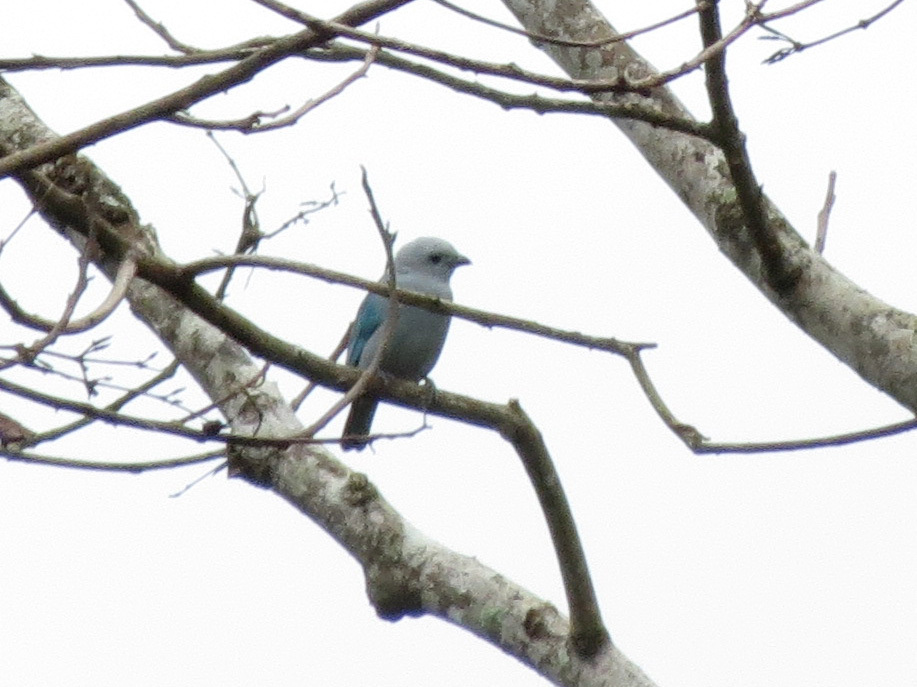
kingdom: Animalia
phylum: Chordata
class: Aves
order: Passeriformes
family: Thraupidae
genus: Thraupis
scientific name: Thraupis episcopus
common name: Blue-grey tanager
